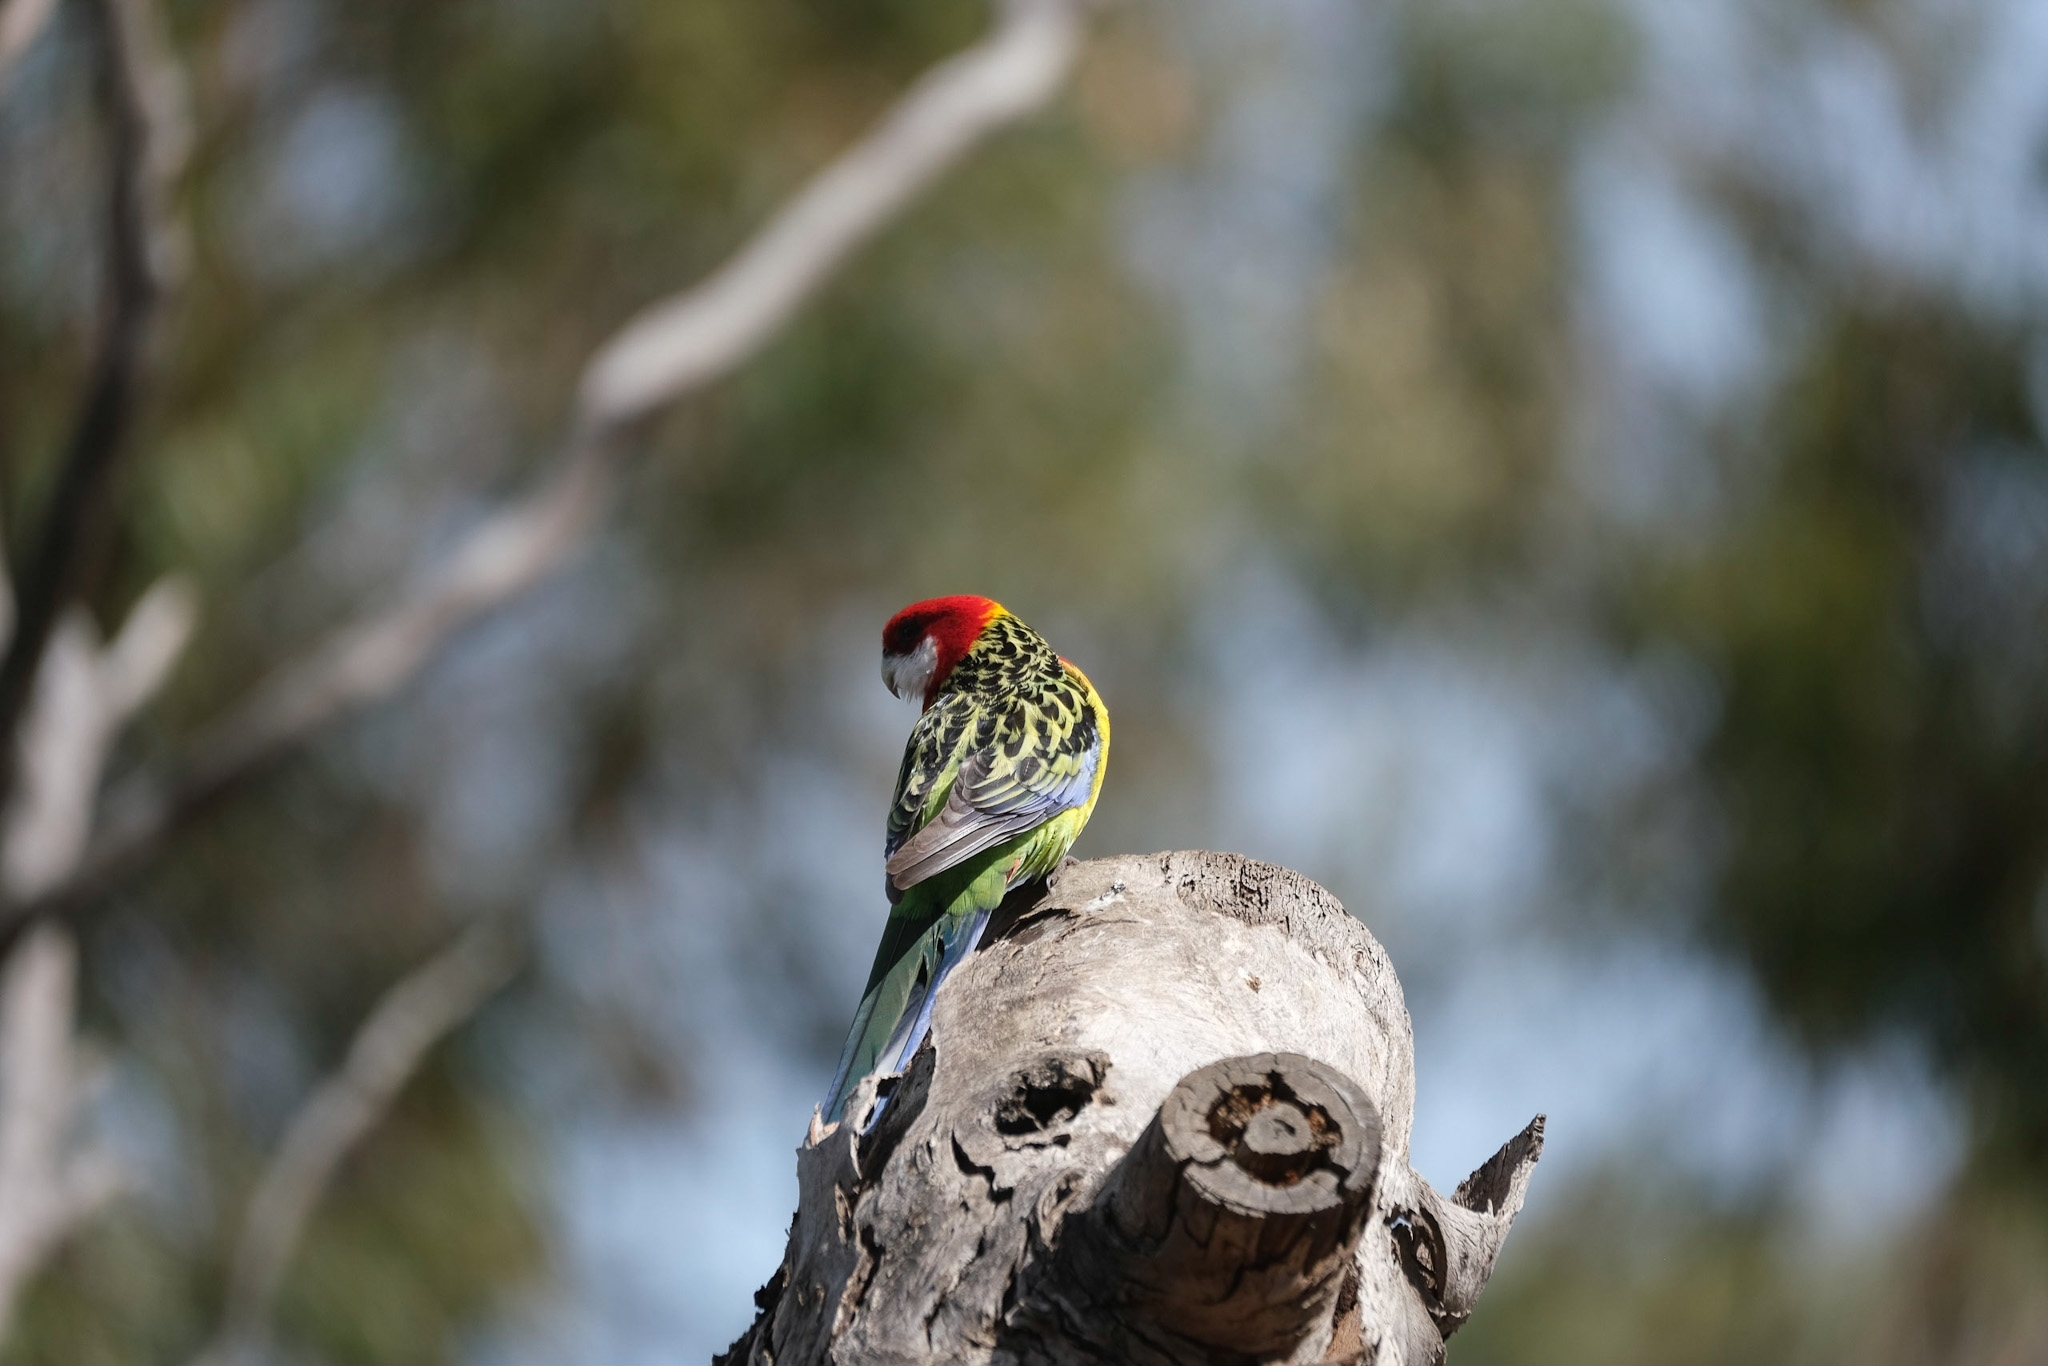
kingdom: Animalia
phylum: Chordata
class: Aves
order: Psittaciformes
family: Psittacidae
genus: Platycercus
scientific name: Platycercus eximius
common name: Eastern rosella
